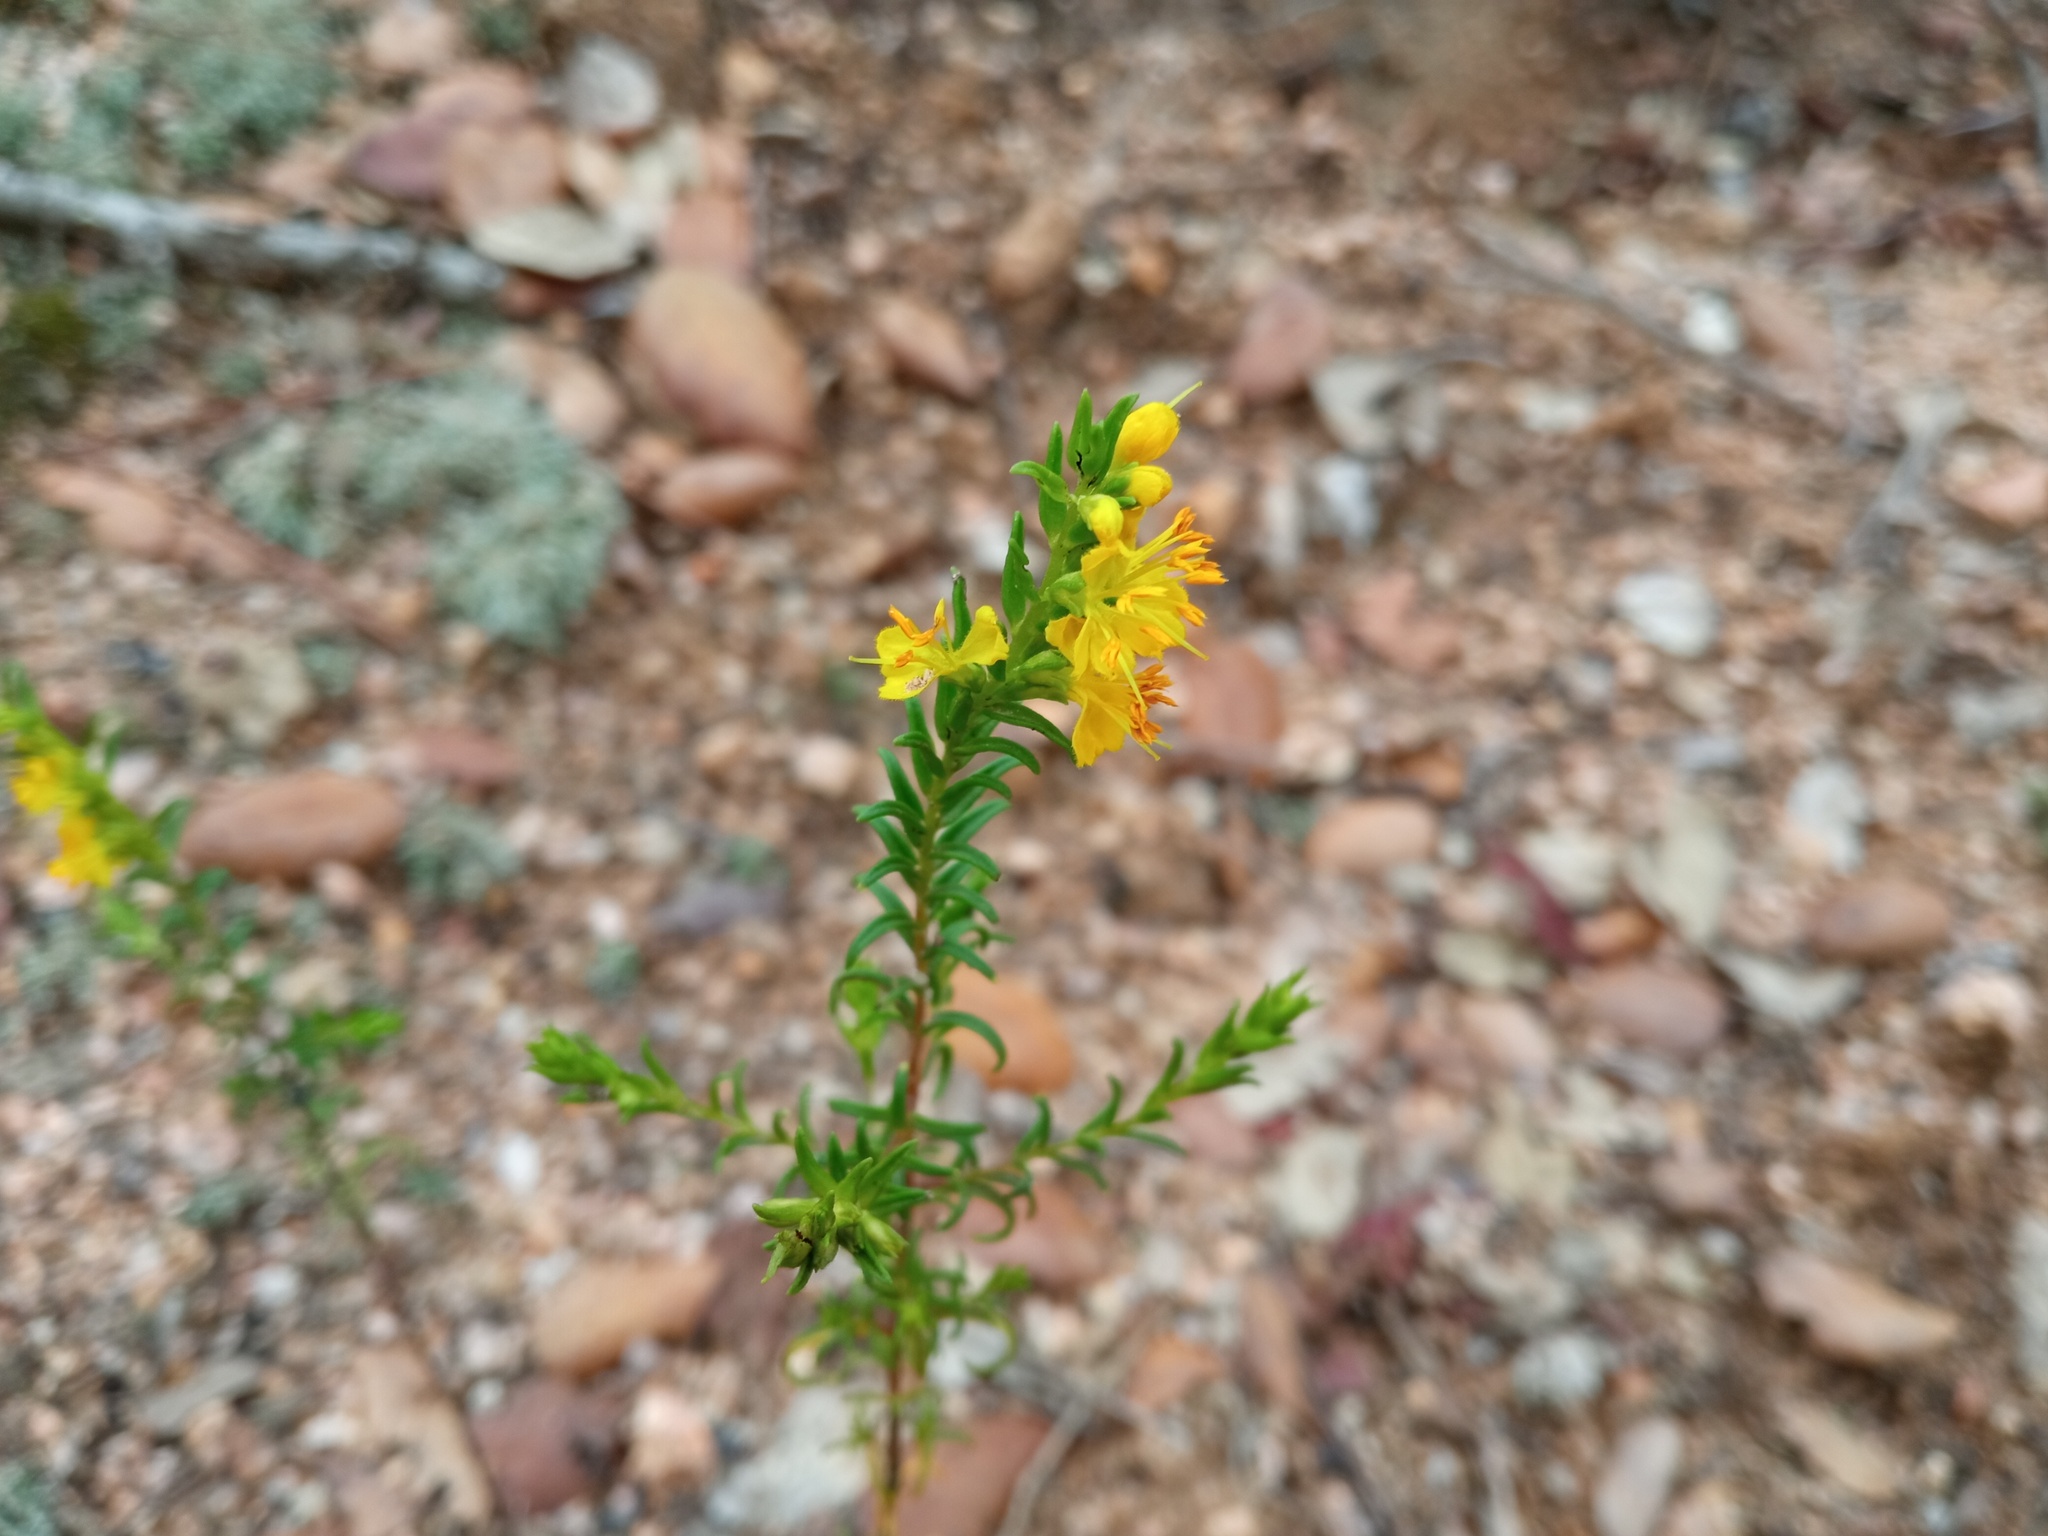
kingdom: Plantae
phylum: Tracheophyta
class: Magnoliopsida
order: Lamiales
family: Orobanchaceae
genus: Odontites
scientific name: Odontites luteus
